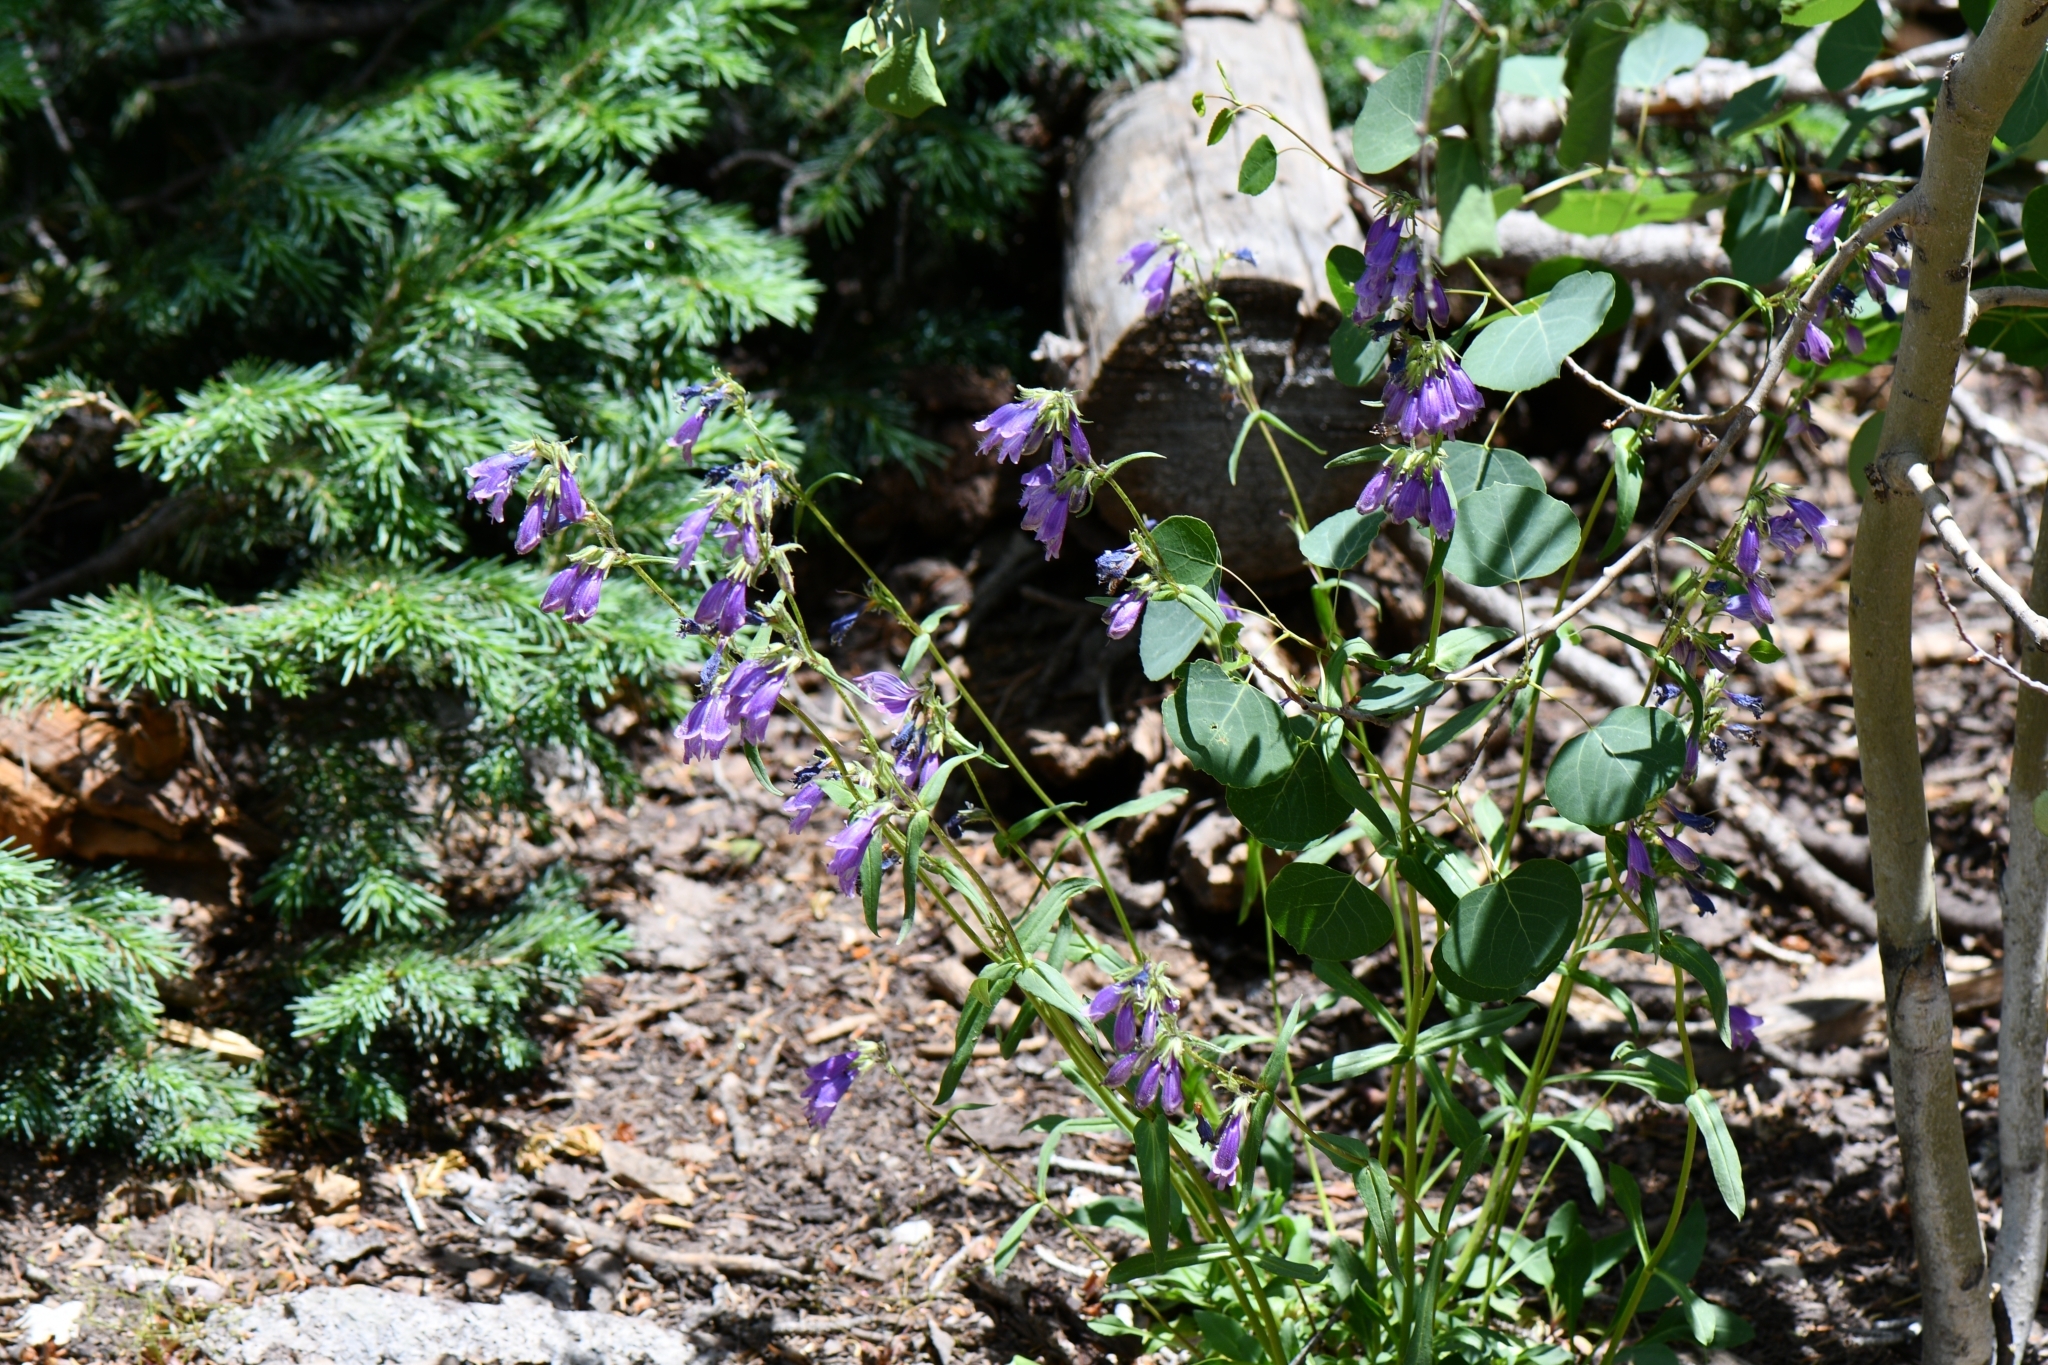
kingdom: Plantae
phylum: Tracheophyta
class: Magnoliopsida
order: Lamiales
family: Plantaginaceae
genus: Penstemon
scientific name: Penstemon whippleanus
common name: Whipple's penstemon
